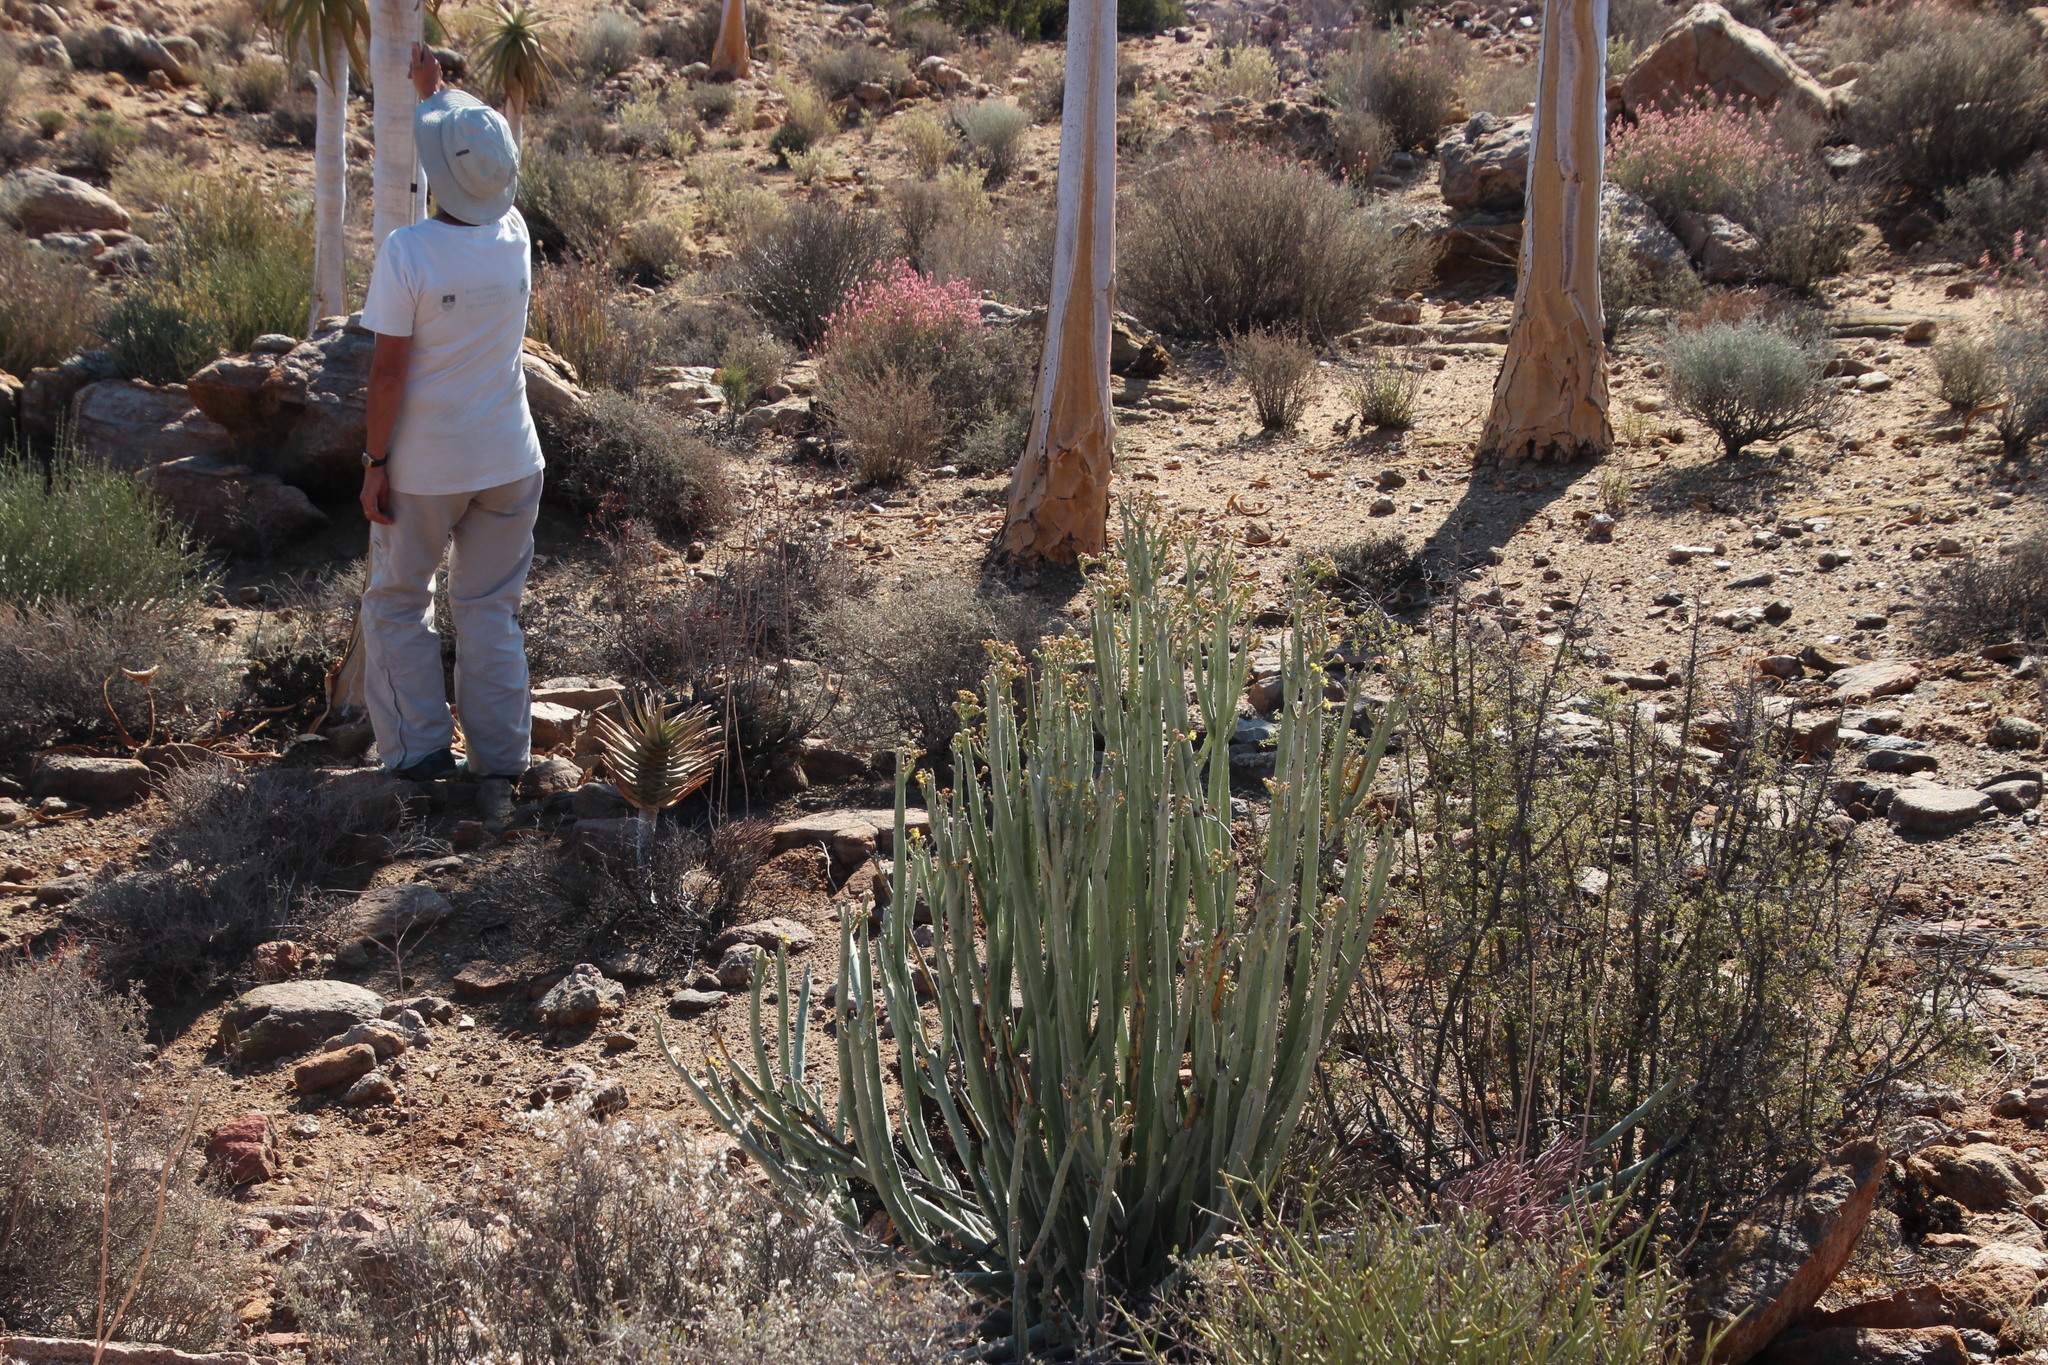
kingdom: Plantae
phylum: Tracheophyta
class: Magnoliopsida
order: Malpighiales
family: Euphorbiaceae
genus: Euphorbia
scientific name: Euphorbia dregeana
